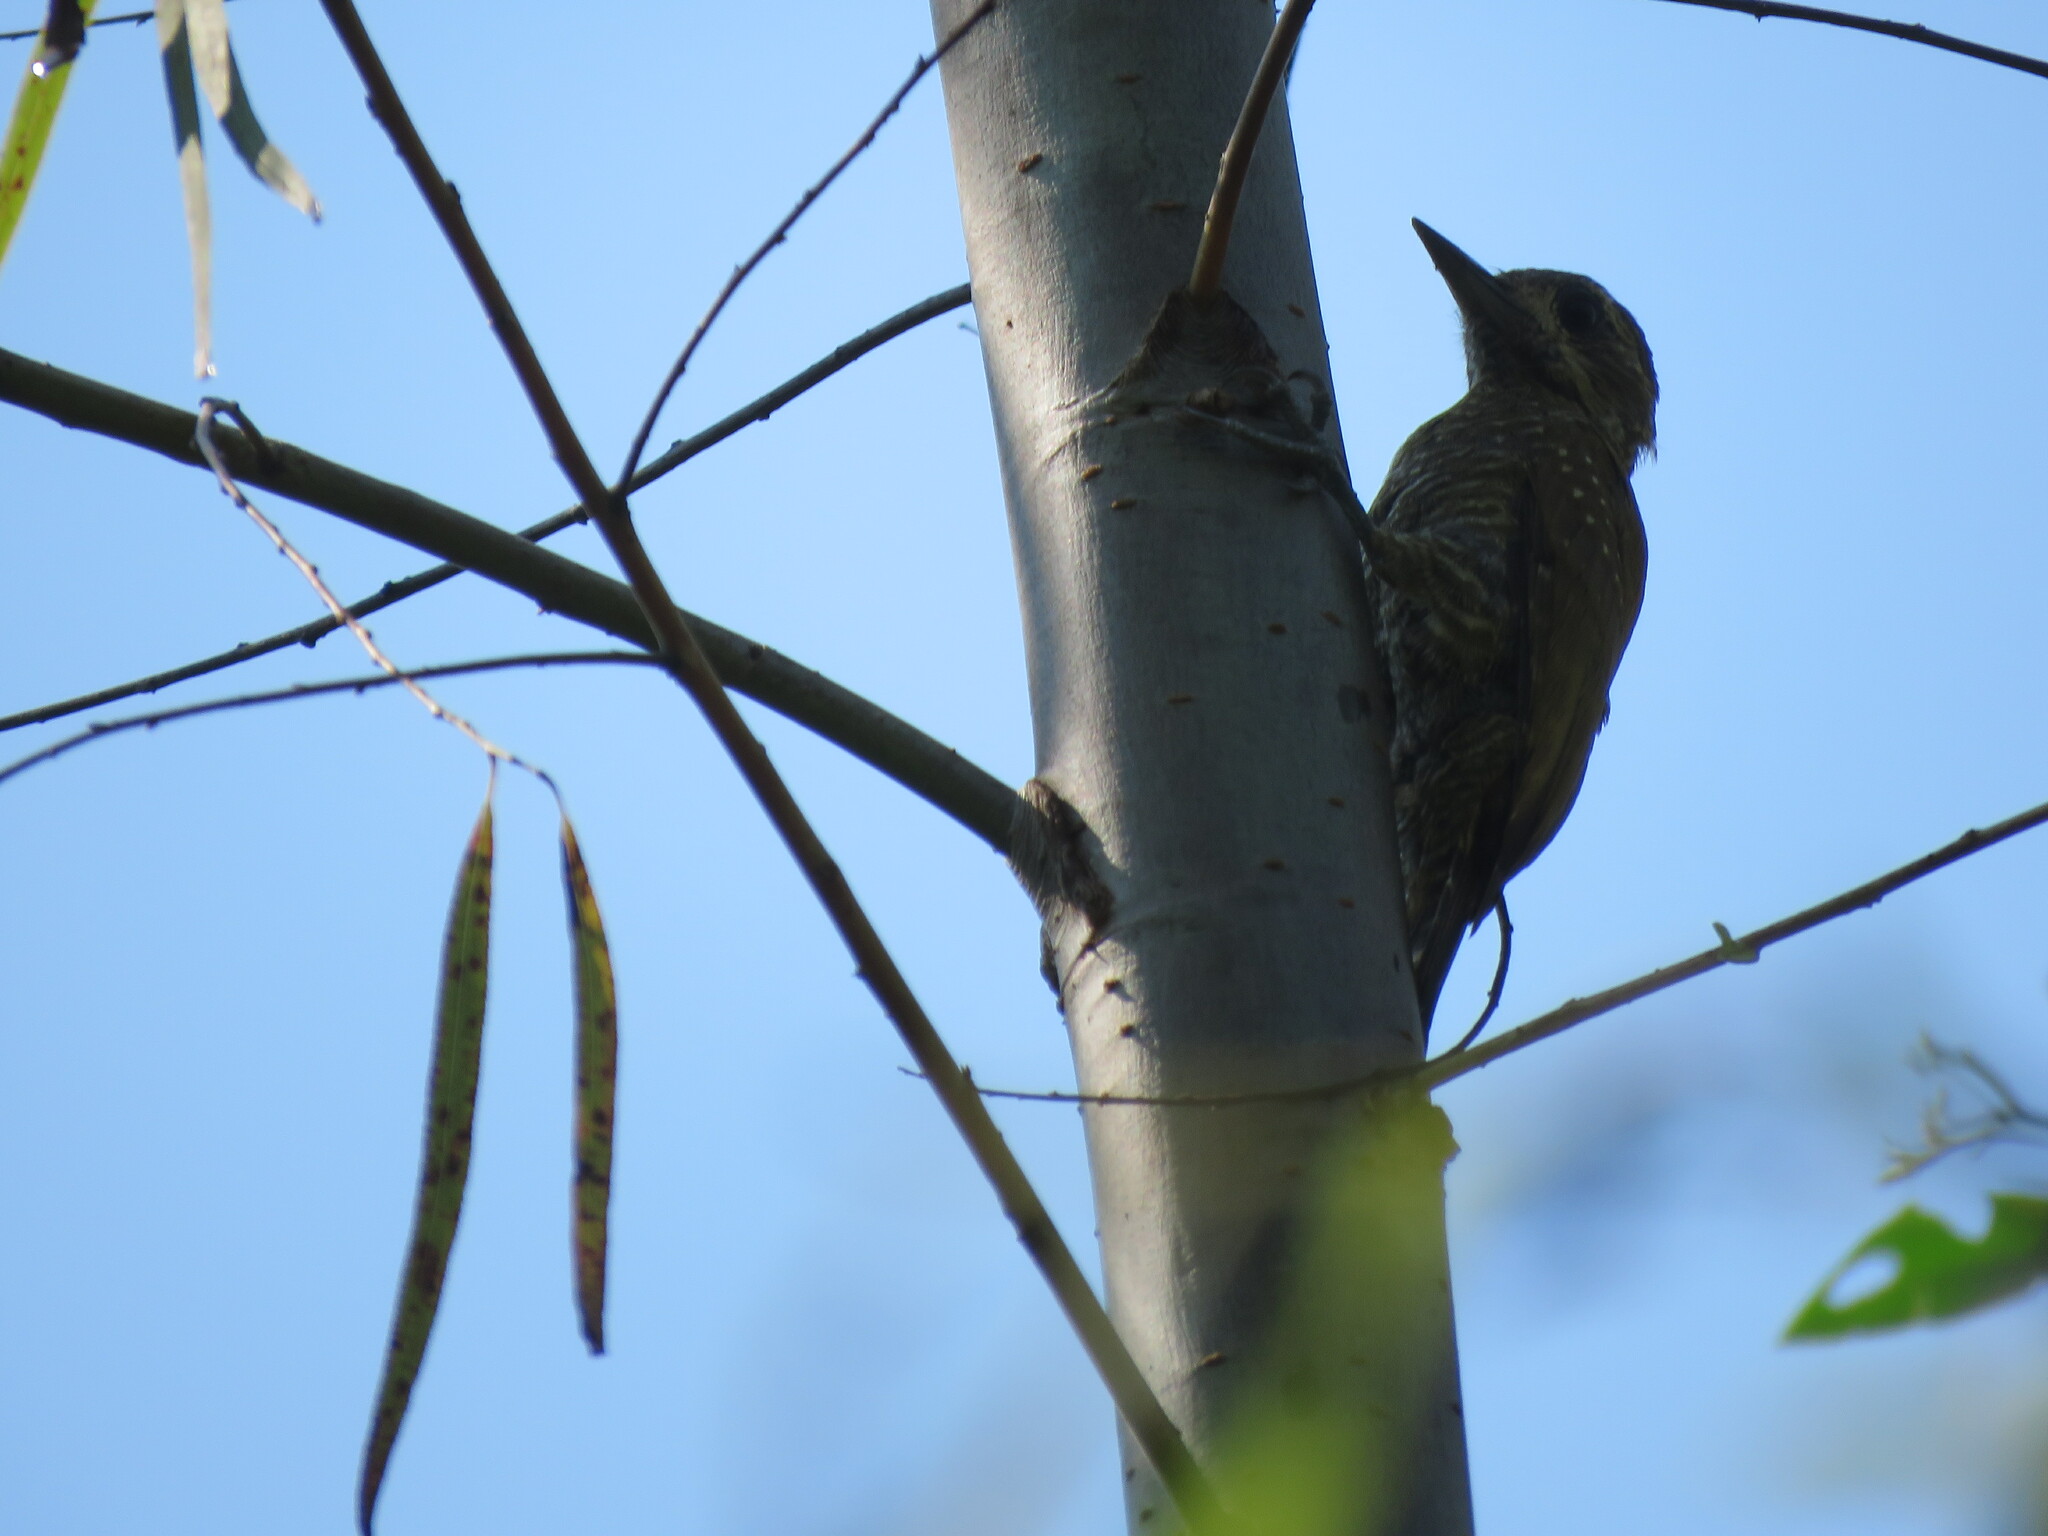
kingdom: Animalia
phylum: Chordata
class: Aves
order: Piciformes
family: Picidae
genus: Veniliornis
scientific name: Veniliornis passerinus
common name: Little woodpecker
